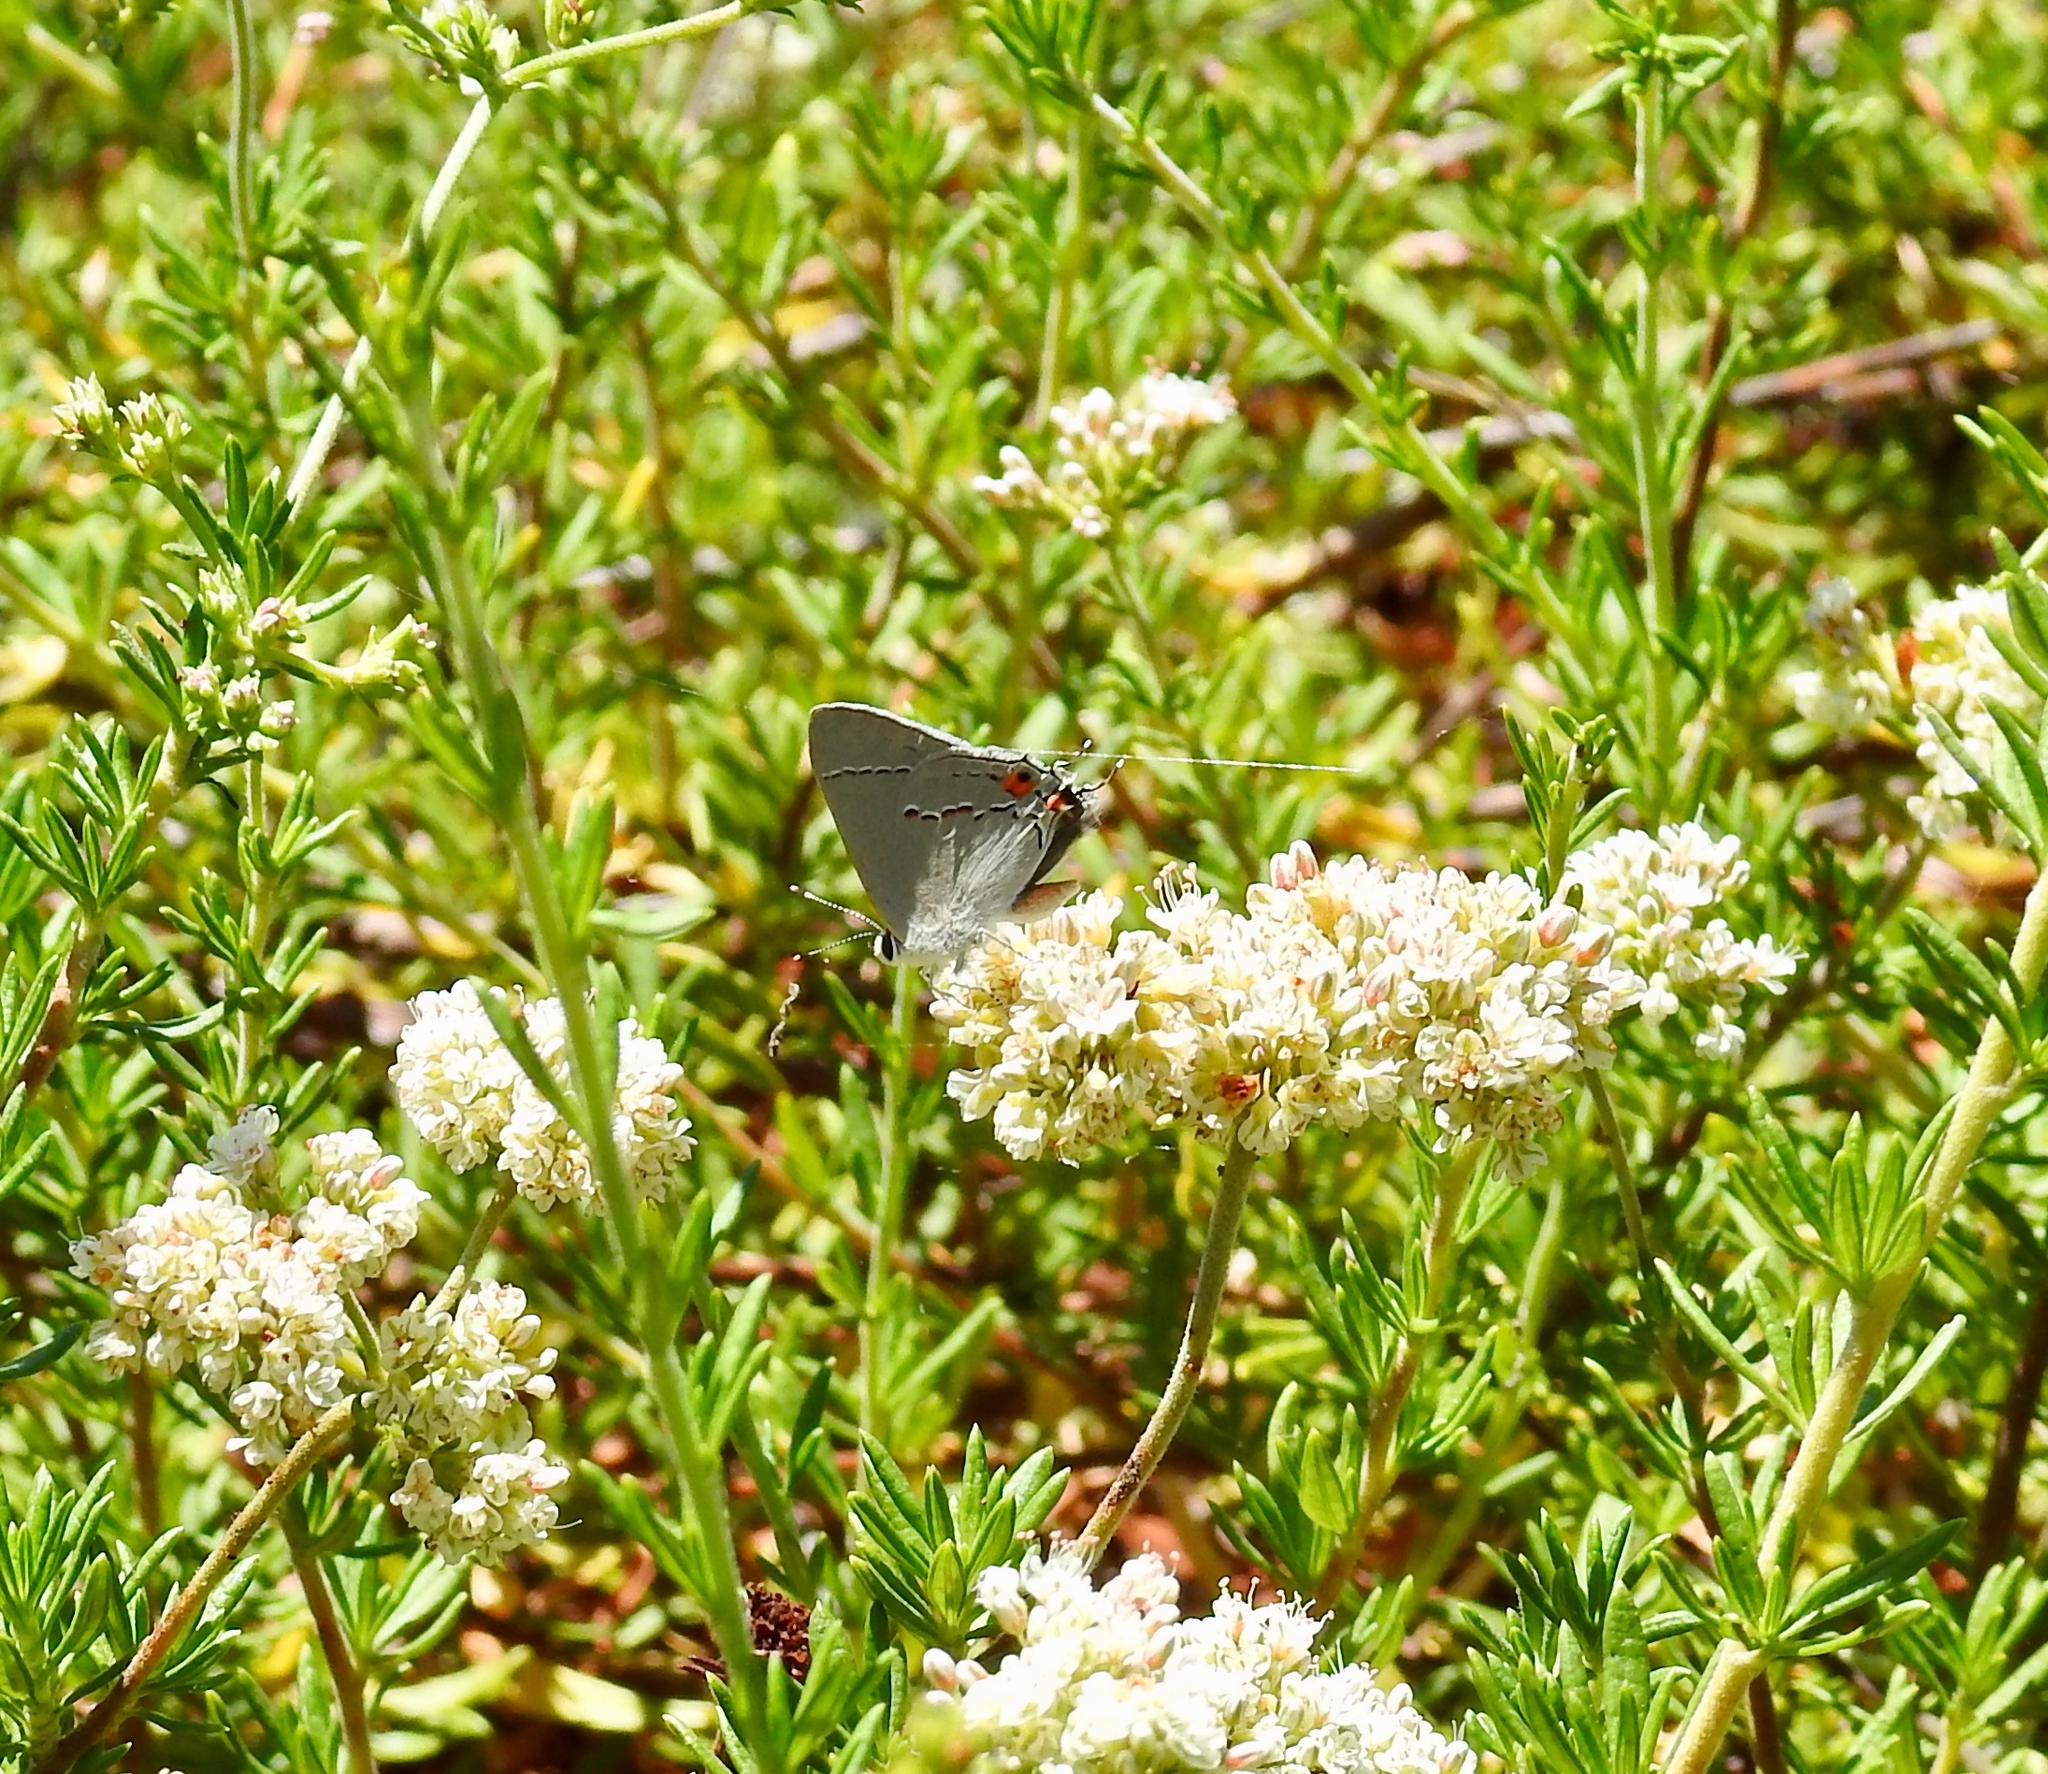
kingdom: Animalia
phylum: Arthropoda
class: Insecta
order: Lepidoptera
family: Lycaenidae
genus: Strymon
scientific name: Strymon melinus
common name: Gray hairstreak
